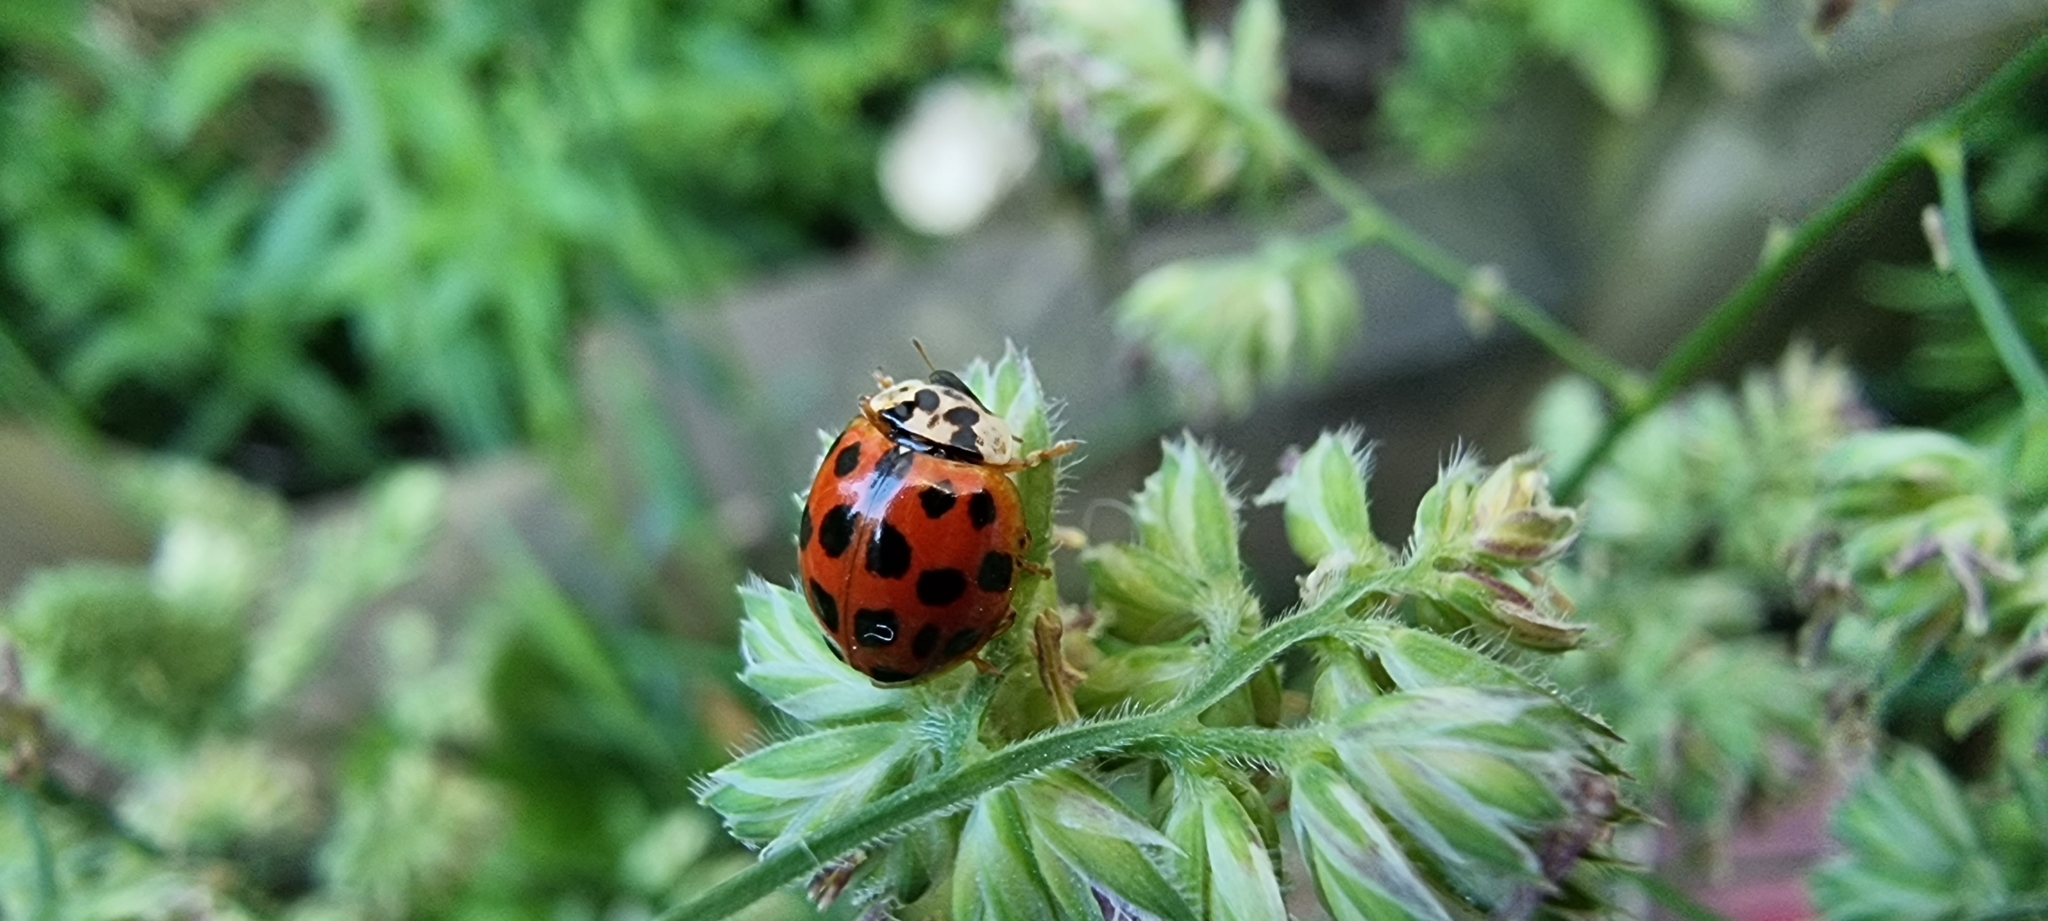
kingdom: Animalia
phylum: Arthropoda
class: Insecta
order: Coleoptera
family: Coccinellidae
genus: Harmonia
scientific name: Harmonia axyridis
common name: Harlequin ladybird
